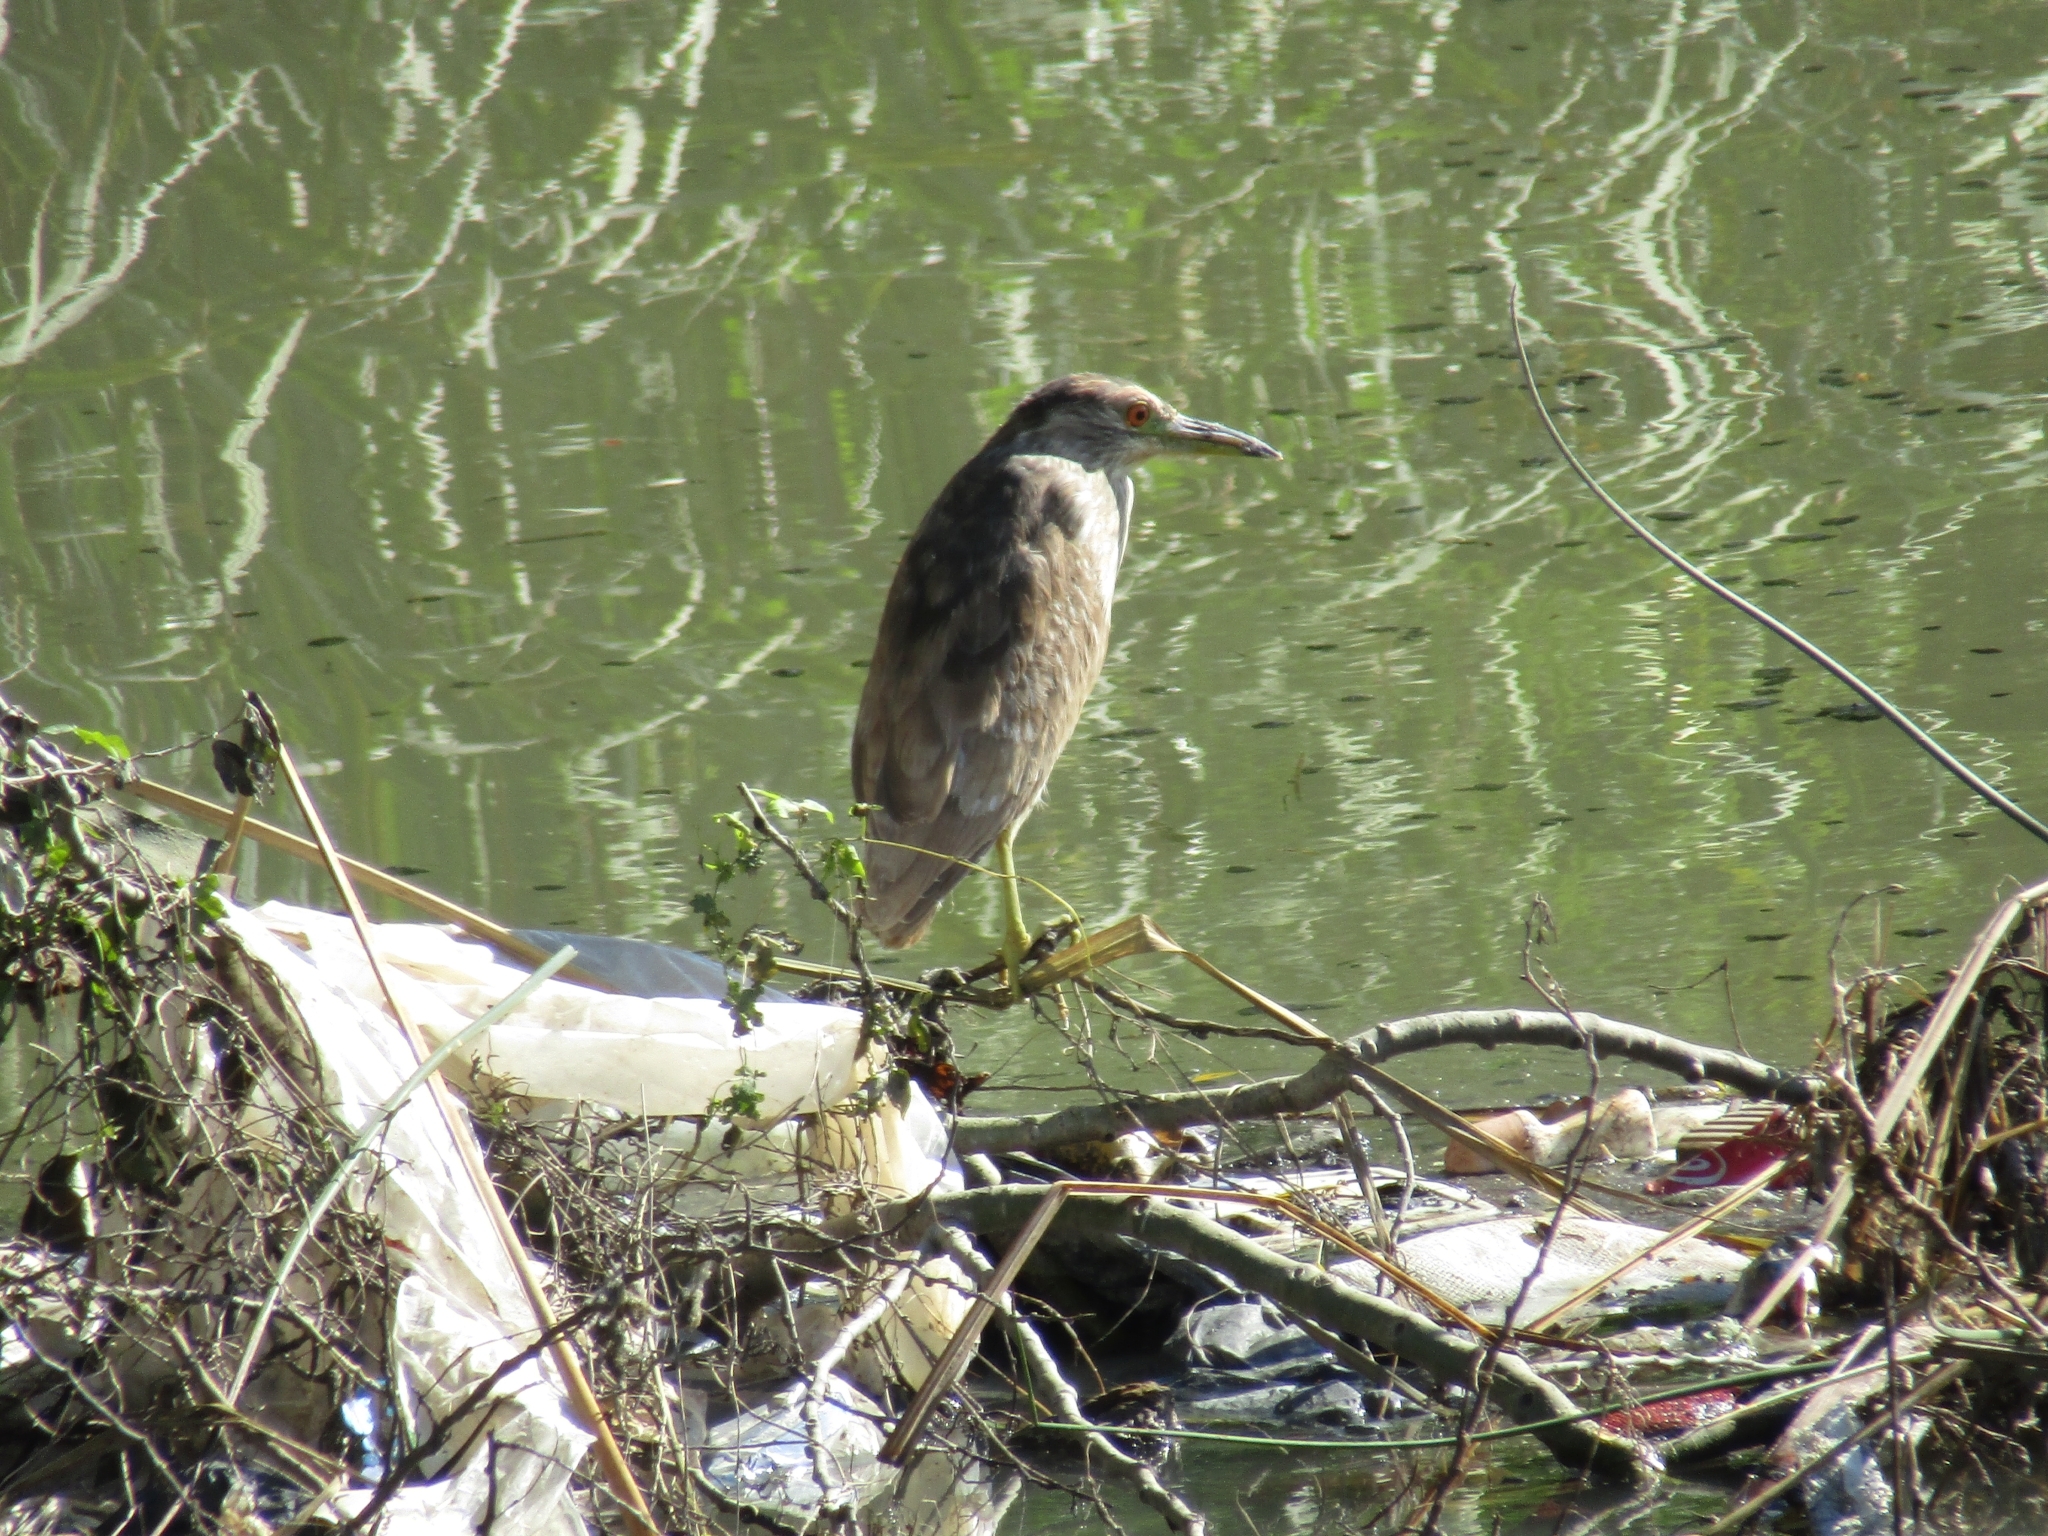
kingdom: Animalia
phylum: Chordata
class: Aves
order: Pelecaniformes
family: Ardeidae
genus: Nycticorax
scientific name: Nycticorax nycticorax
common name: Black-crowned night heron
